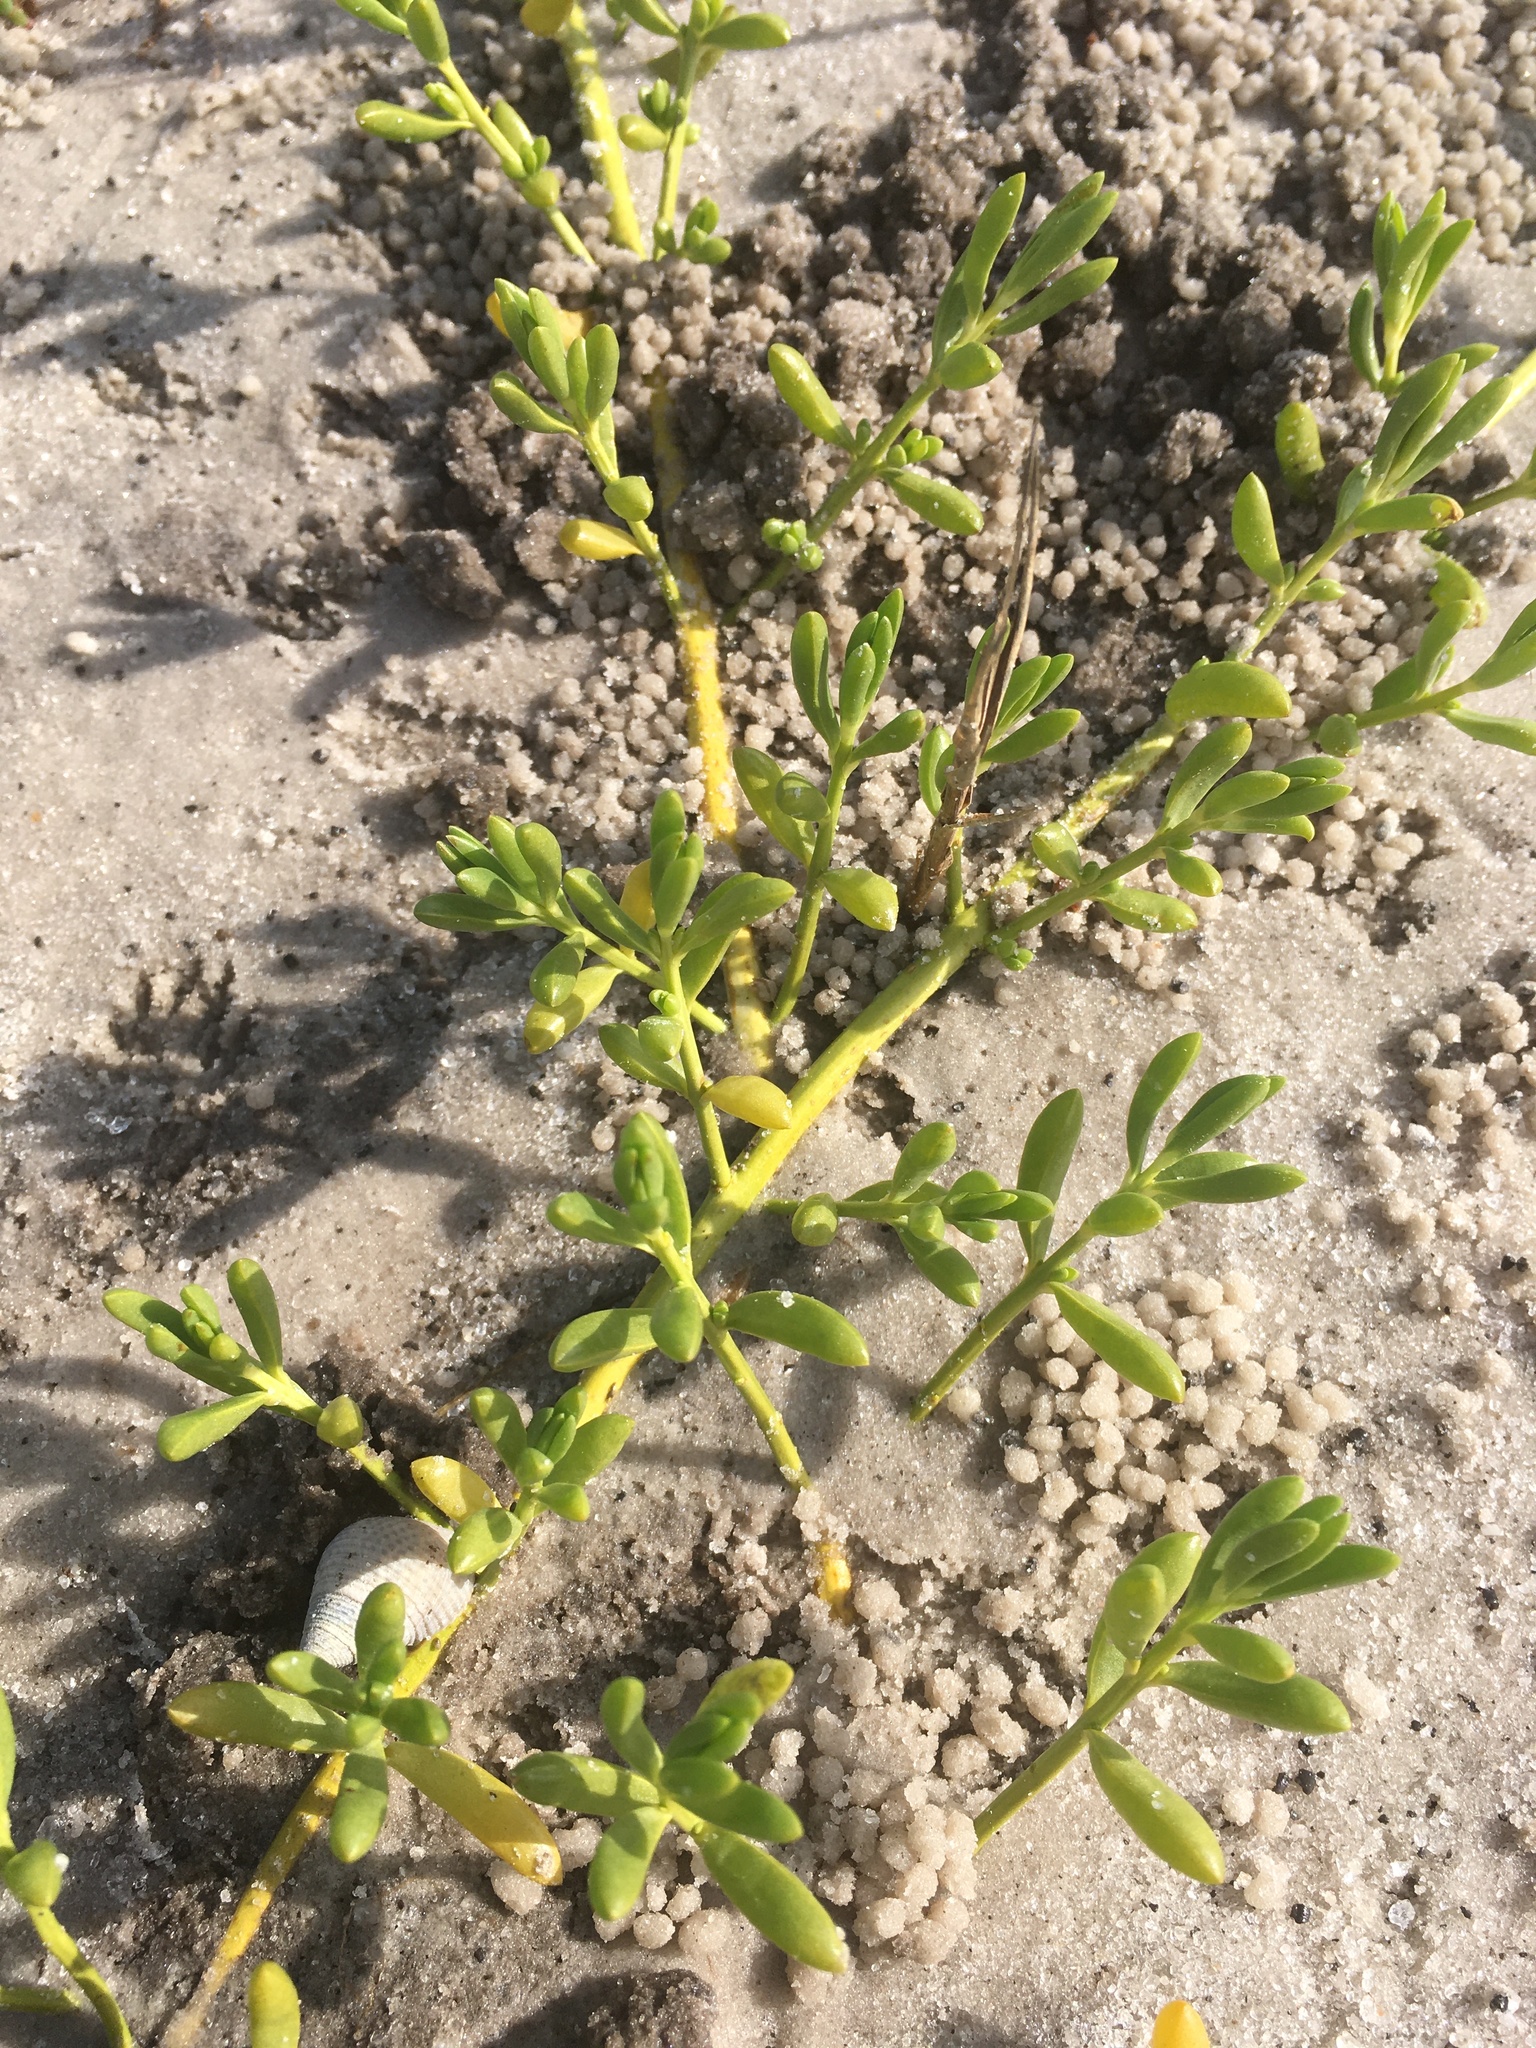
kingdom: Plantae
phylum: Tracheophyta
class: Magnoliopsida
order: Brassicales
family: Bataceae
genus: Batis
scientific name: Batis maritima
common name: Turtleweed
